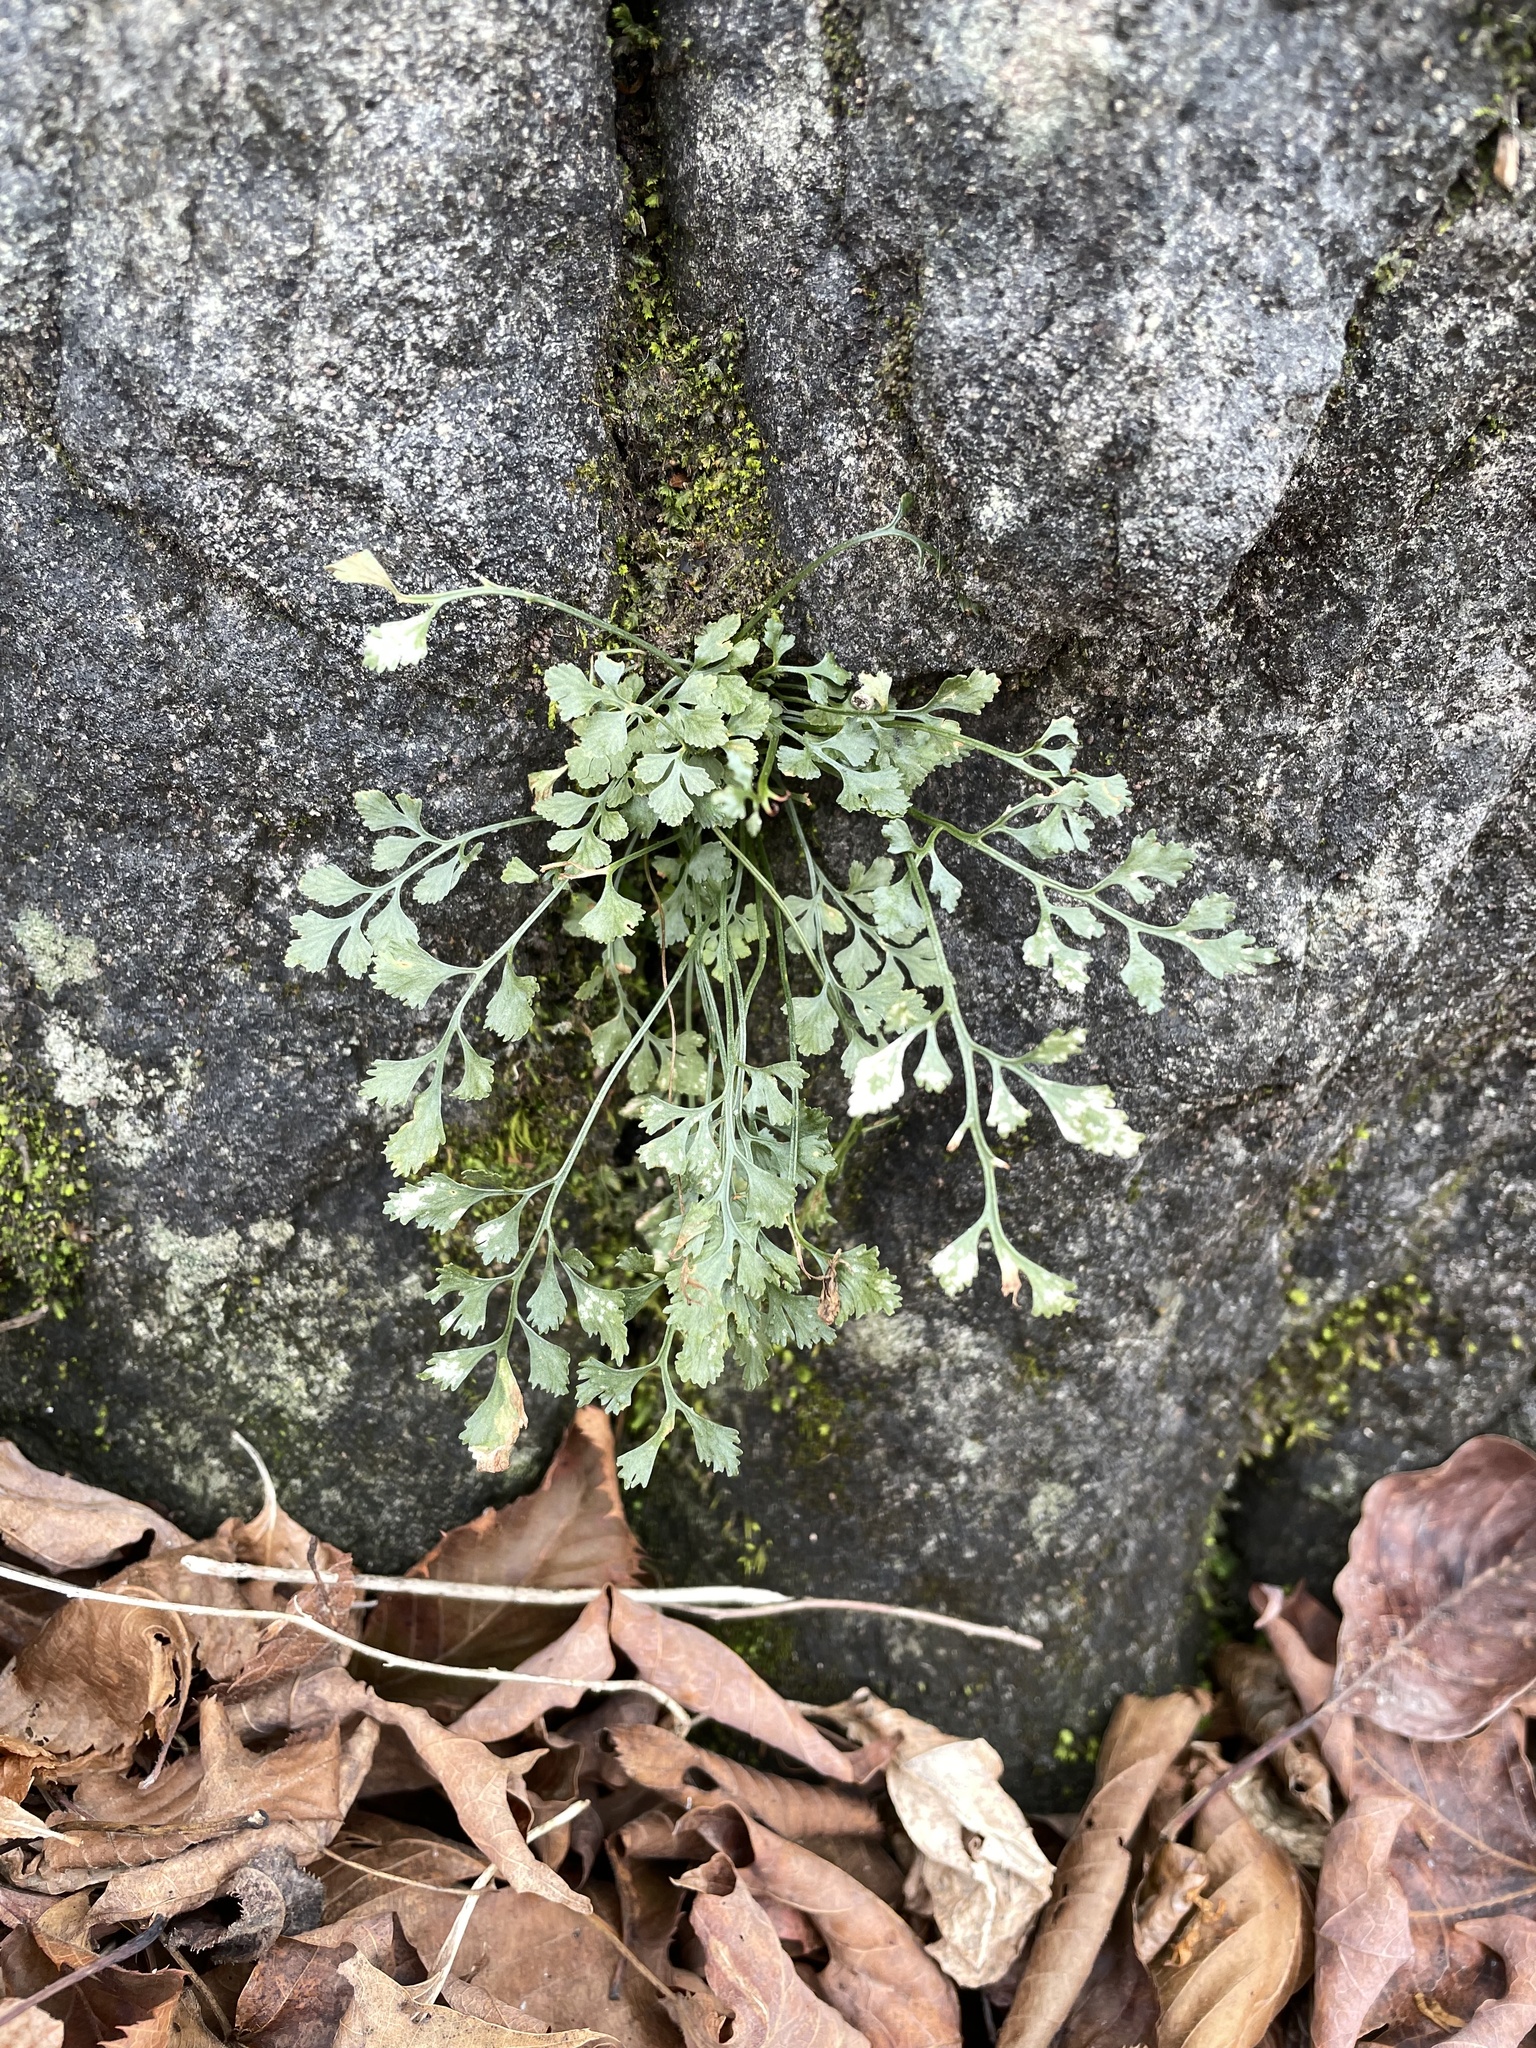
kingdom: Plantae
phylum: Tracheophyta
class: Polypodiopsida
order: Polypodiales
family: Aspleniaceae
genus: Asplenium
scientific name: Asplenium ruta-muraria
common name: Wall-rue
